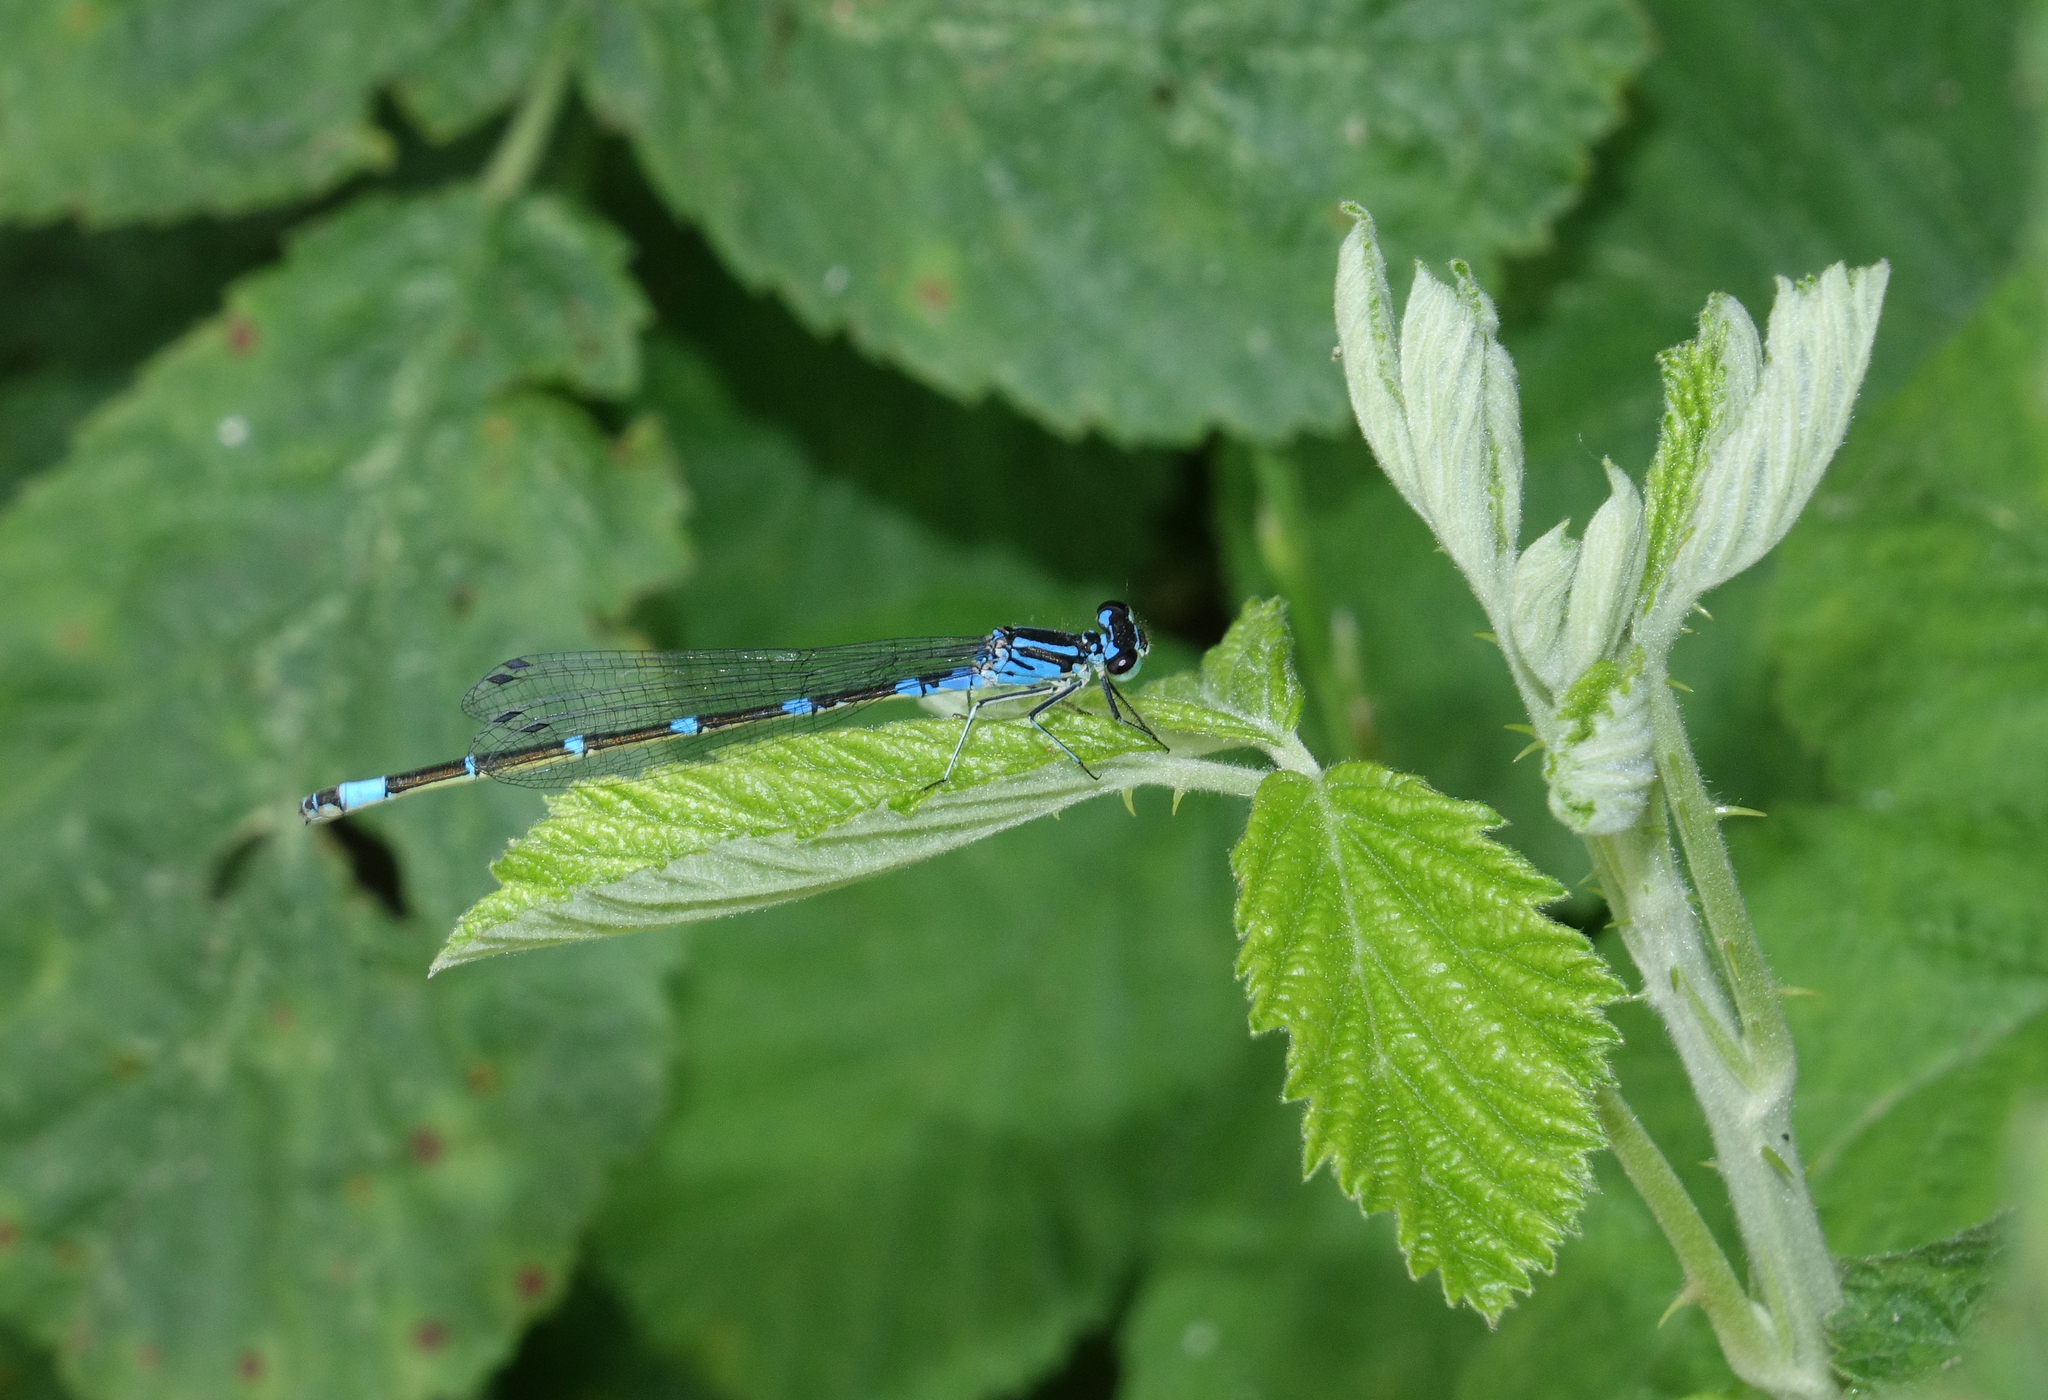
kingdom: Animalia
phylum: Arthropoda
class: Insecta
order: Odonata
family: Coenagrionidae
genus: Coenagrion
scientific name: Coenagrion pulchellum
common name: Variable bluet
